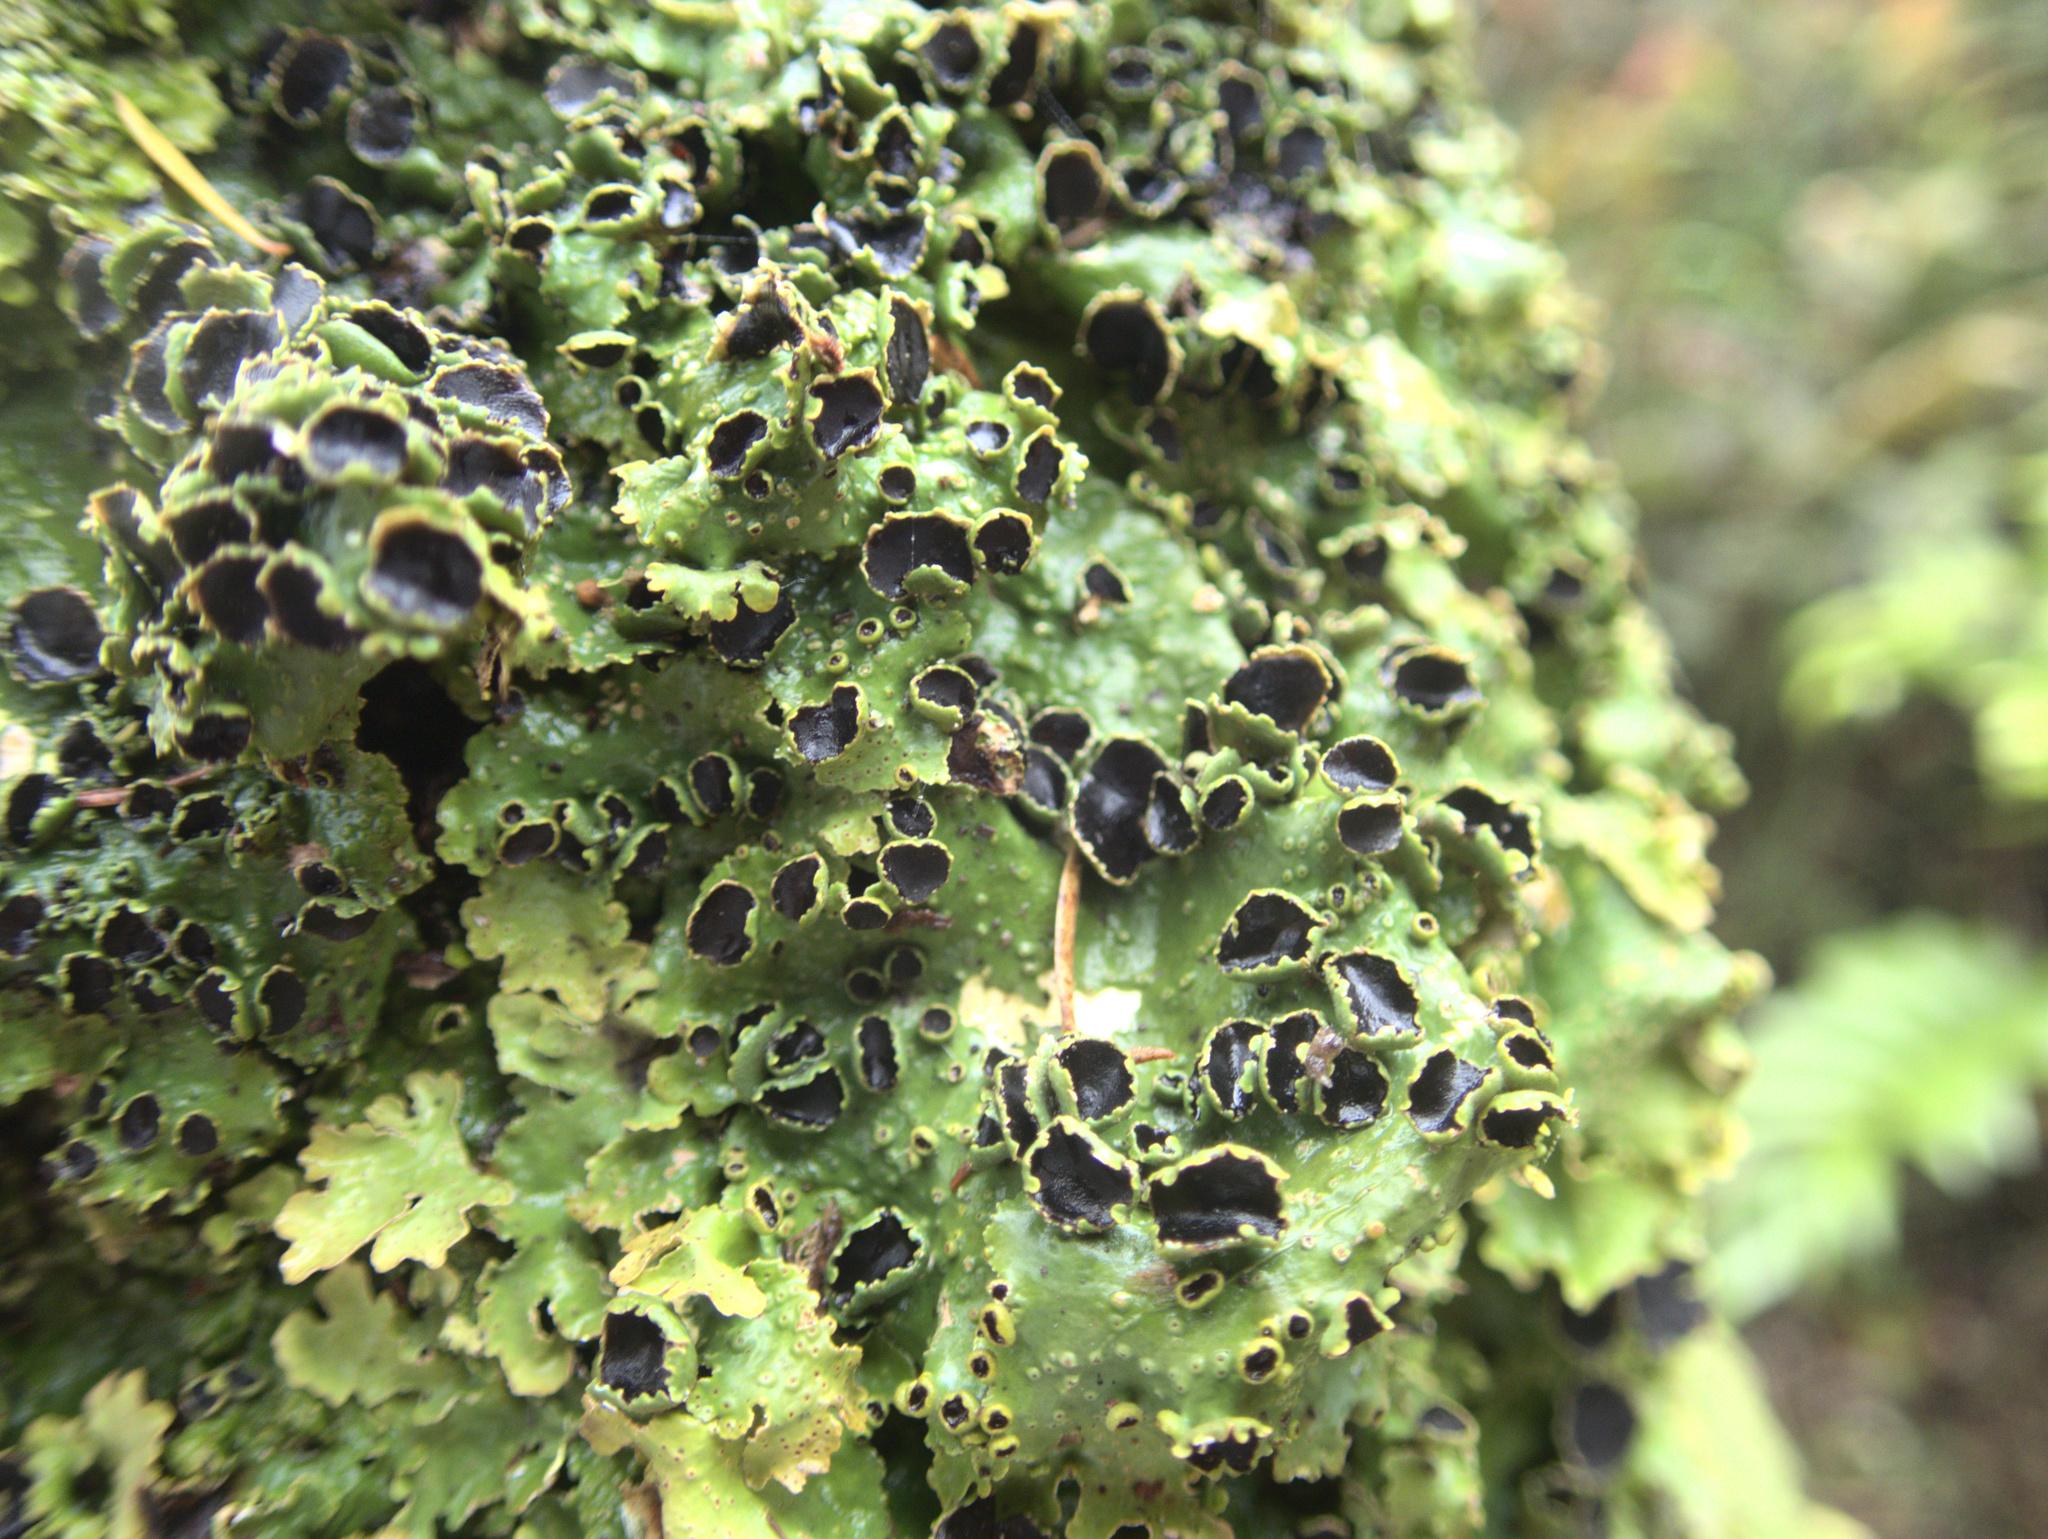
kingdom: Fungi
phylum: Ascomycota
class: Lecanoromycetes
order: Peltigerales
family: Lobariaceae
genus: Pseudocyphellaria
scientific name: Pseudocyphellaria montagnei
